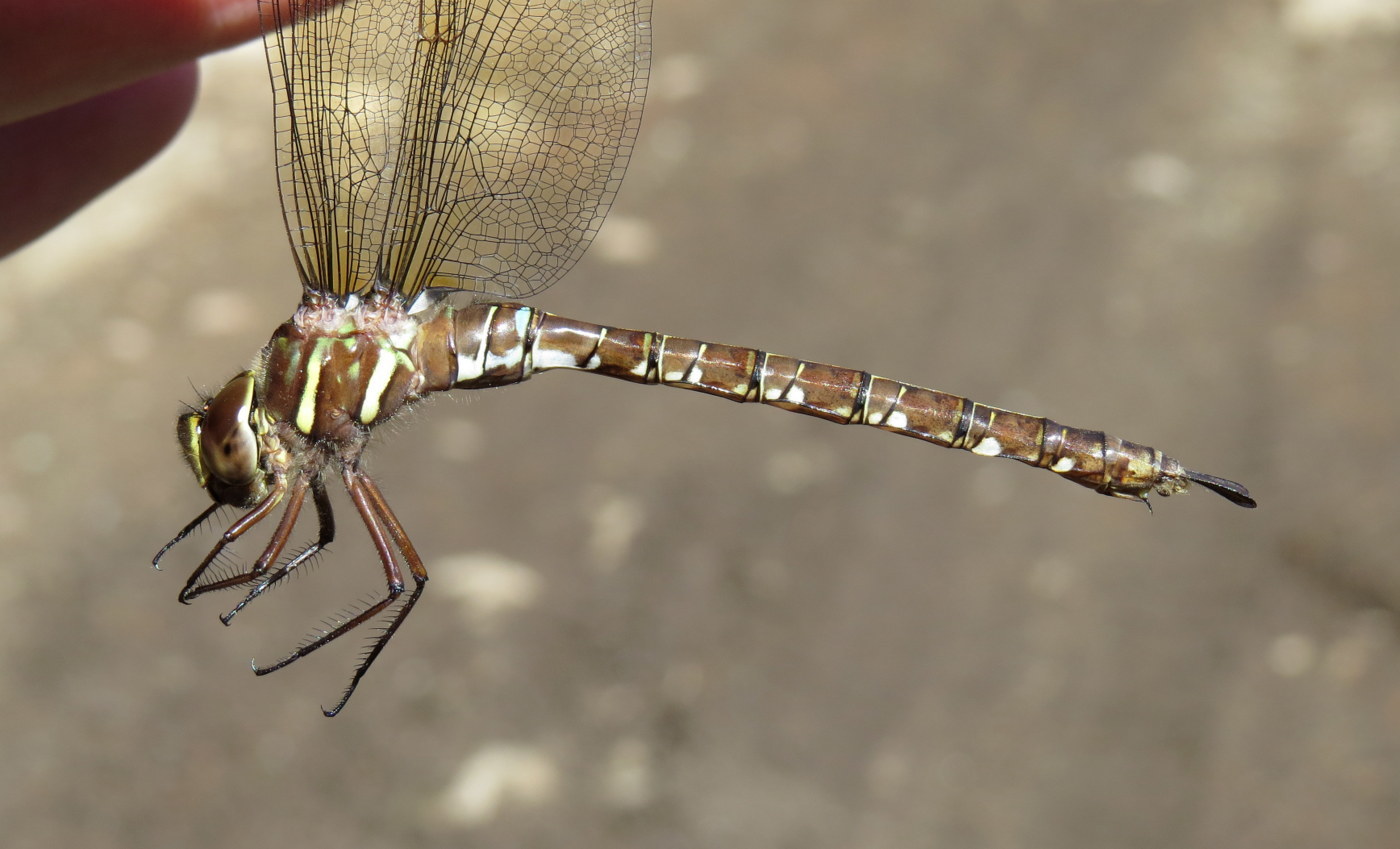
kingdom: Animalia
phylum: Arthropoda
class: Insecta
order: Odonata
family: Aeshnidae
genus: Aeshna
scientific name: Aeshna umbrosa
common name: Shadow darner
